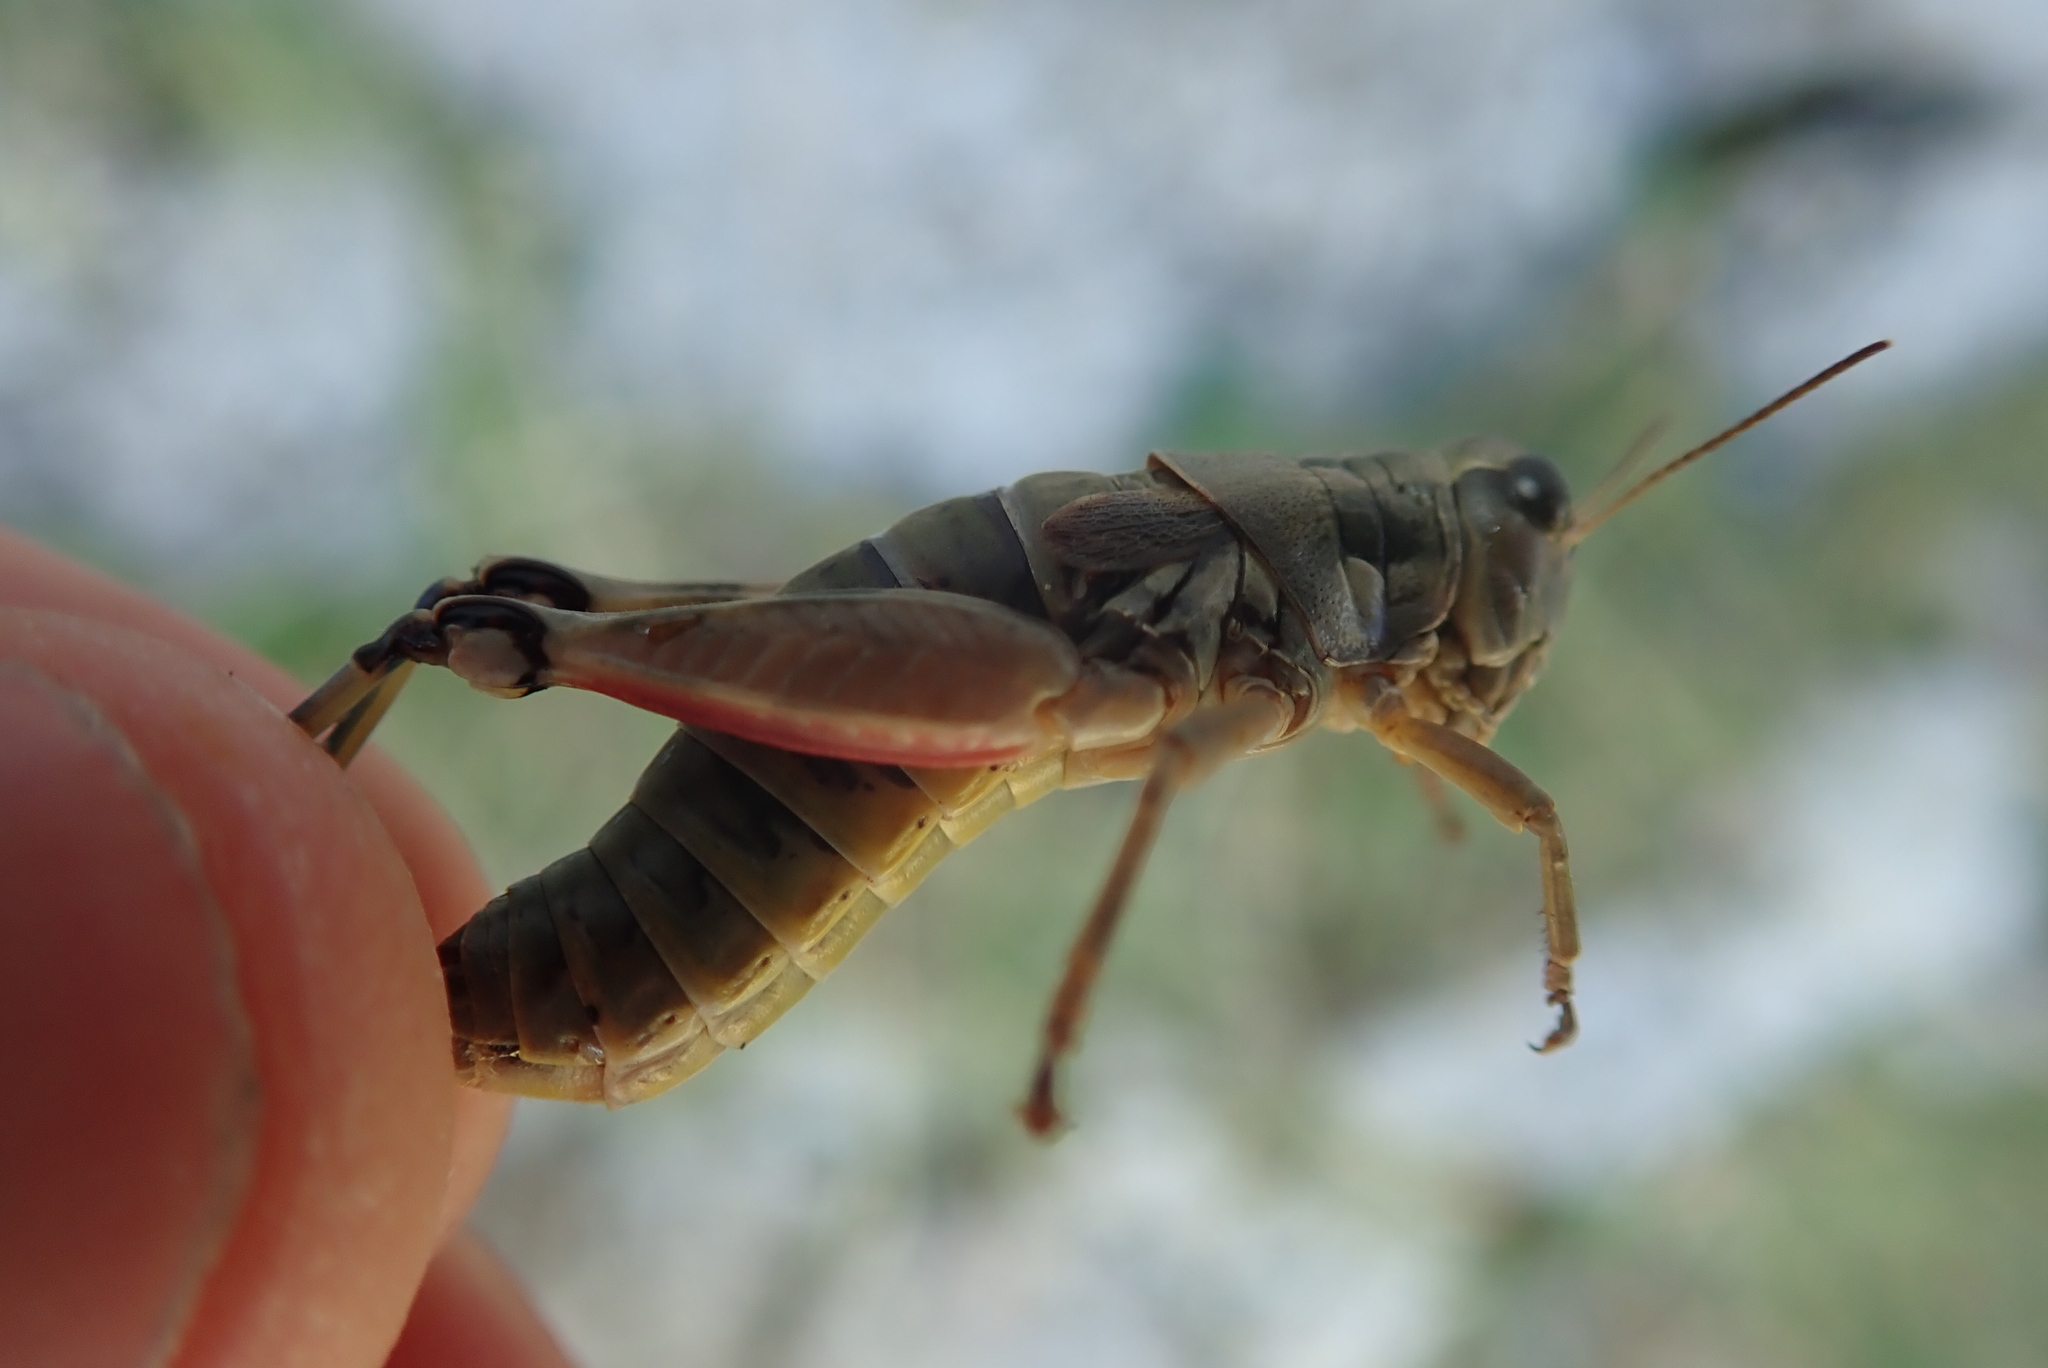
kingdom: Animalia
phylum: Arthropoda
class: Insecta
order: Orthoptera
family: Acrididae
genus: Podisma
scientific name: Podisma amedegnatoae
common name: Ventoux mountain grasshopper
